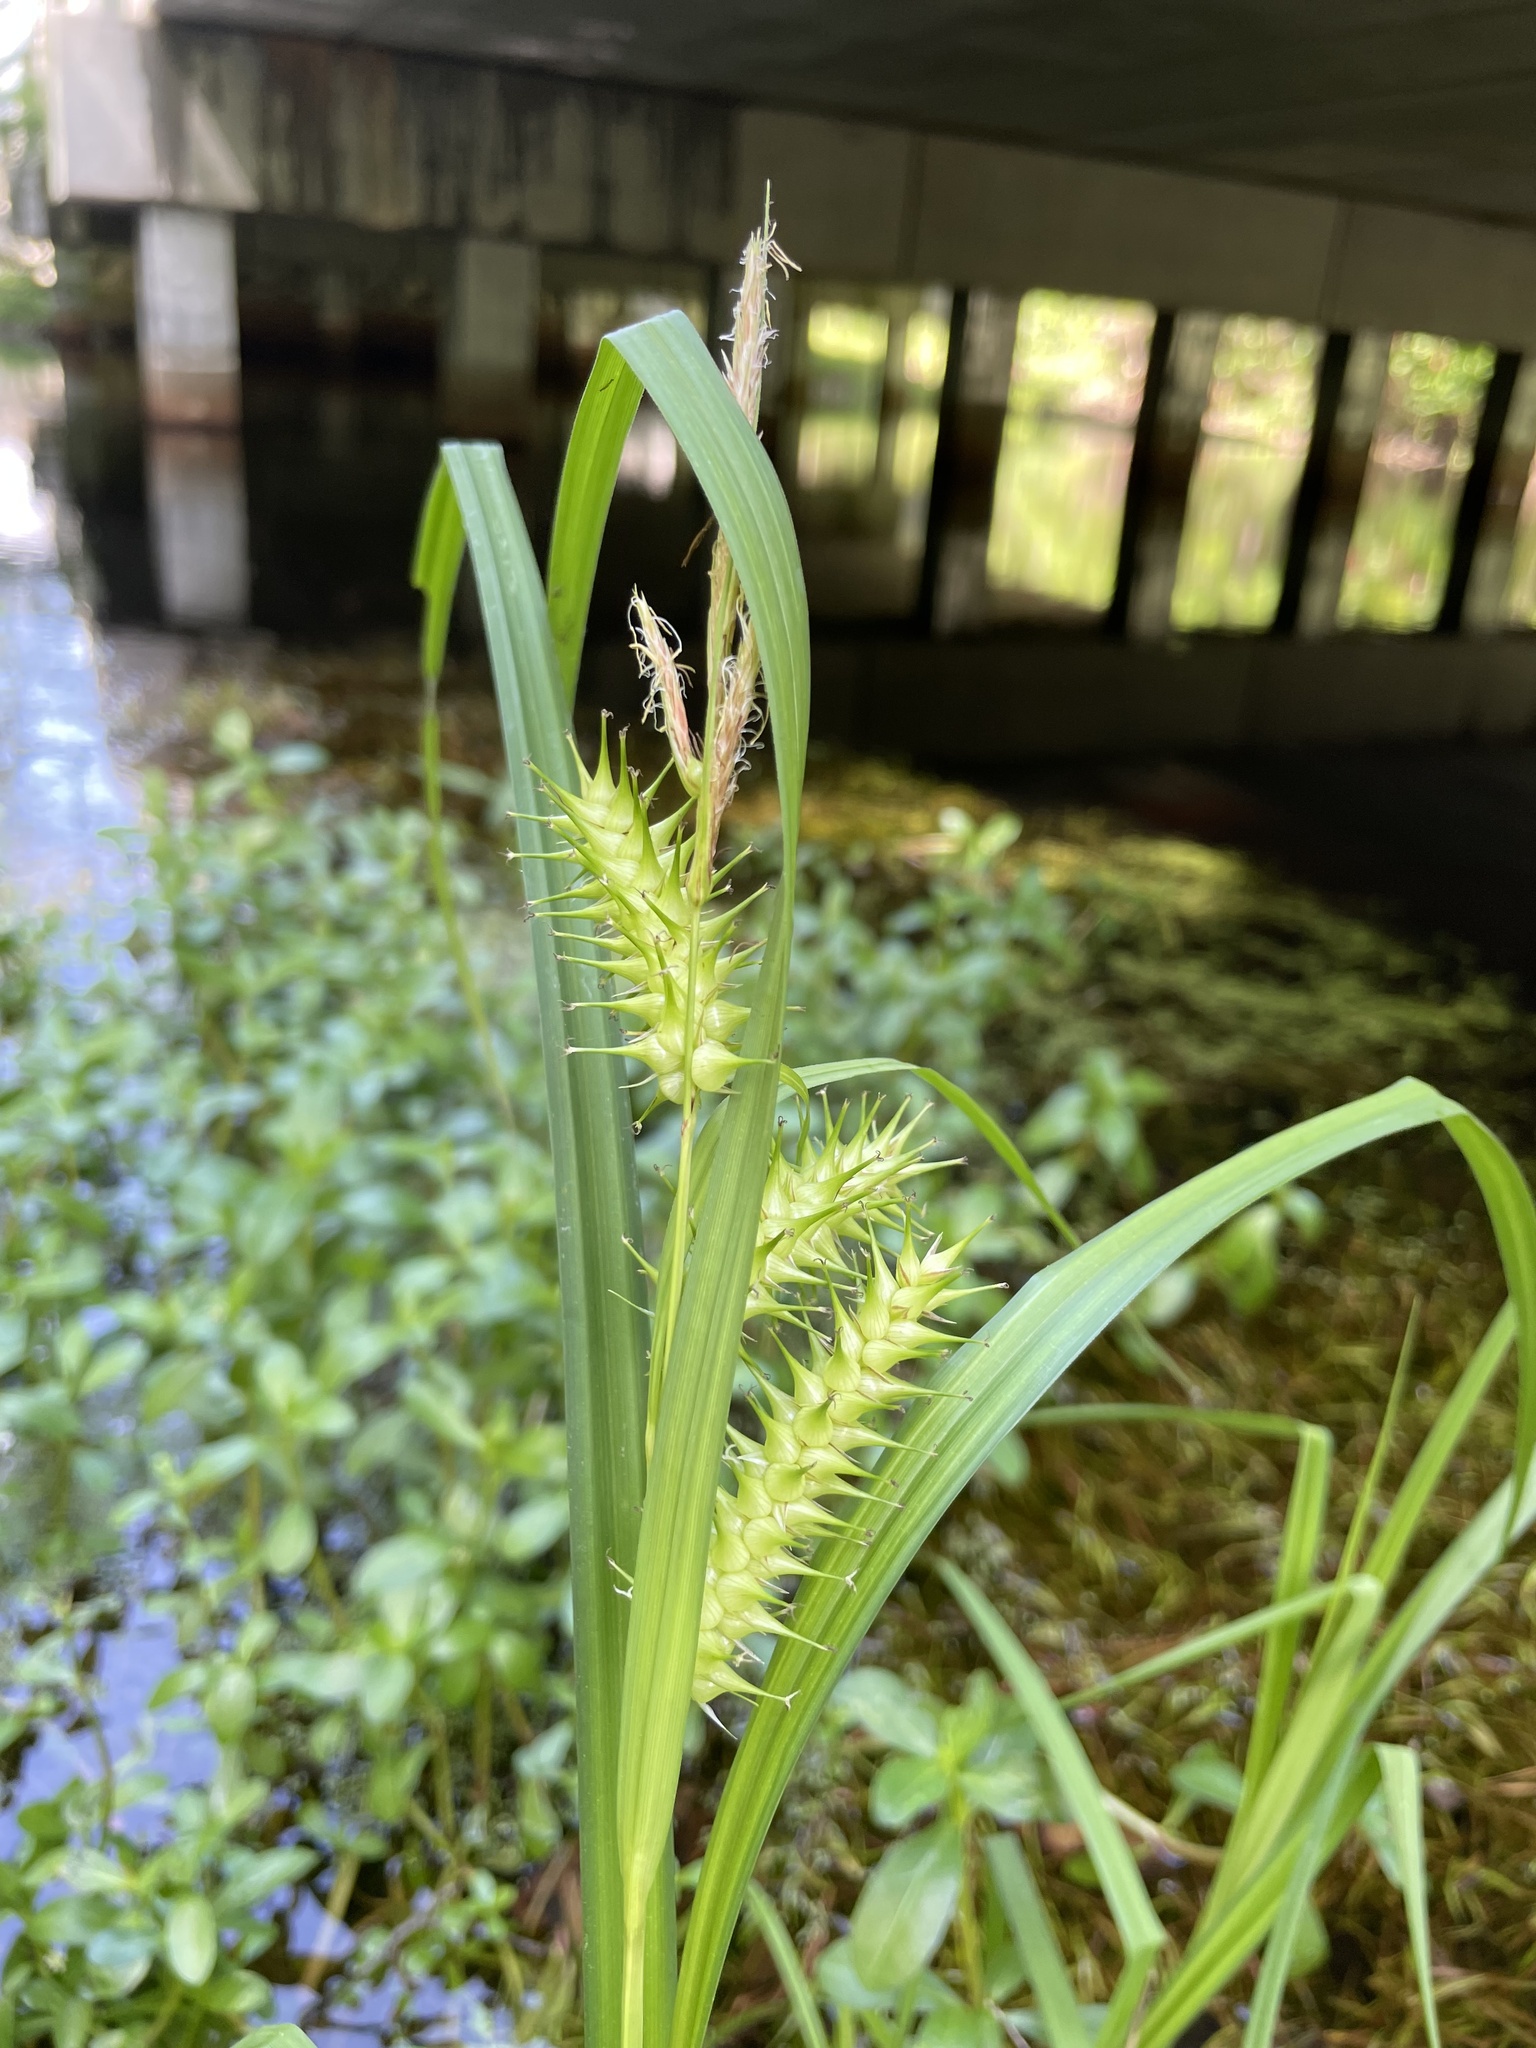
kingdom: Plantae
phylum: Tracheophyta
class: Liliopsida
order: Poales
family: Cyperaceae
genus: Carex
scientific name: Carex gigantea
